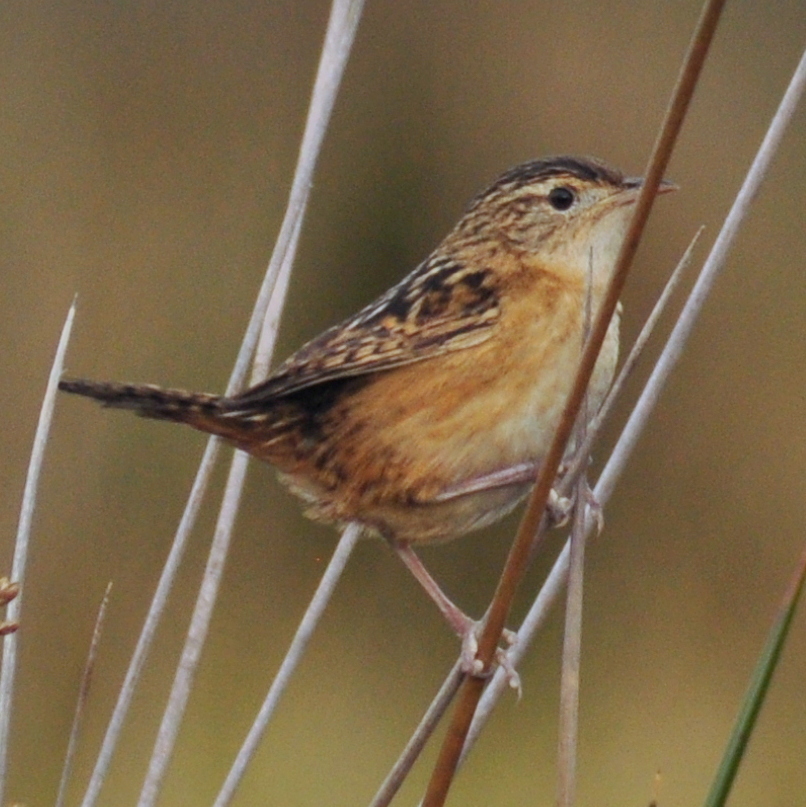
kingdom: Animalia
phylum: Chordata
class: Aves
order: Passeriformes
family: Troglodytidae
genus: Cistothorus
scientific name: Cistothorus platensis
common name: Sedge wren
